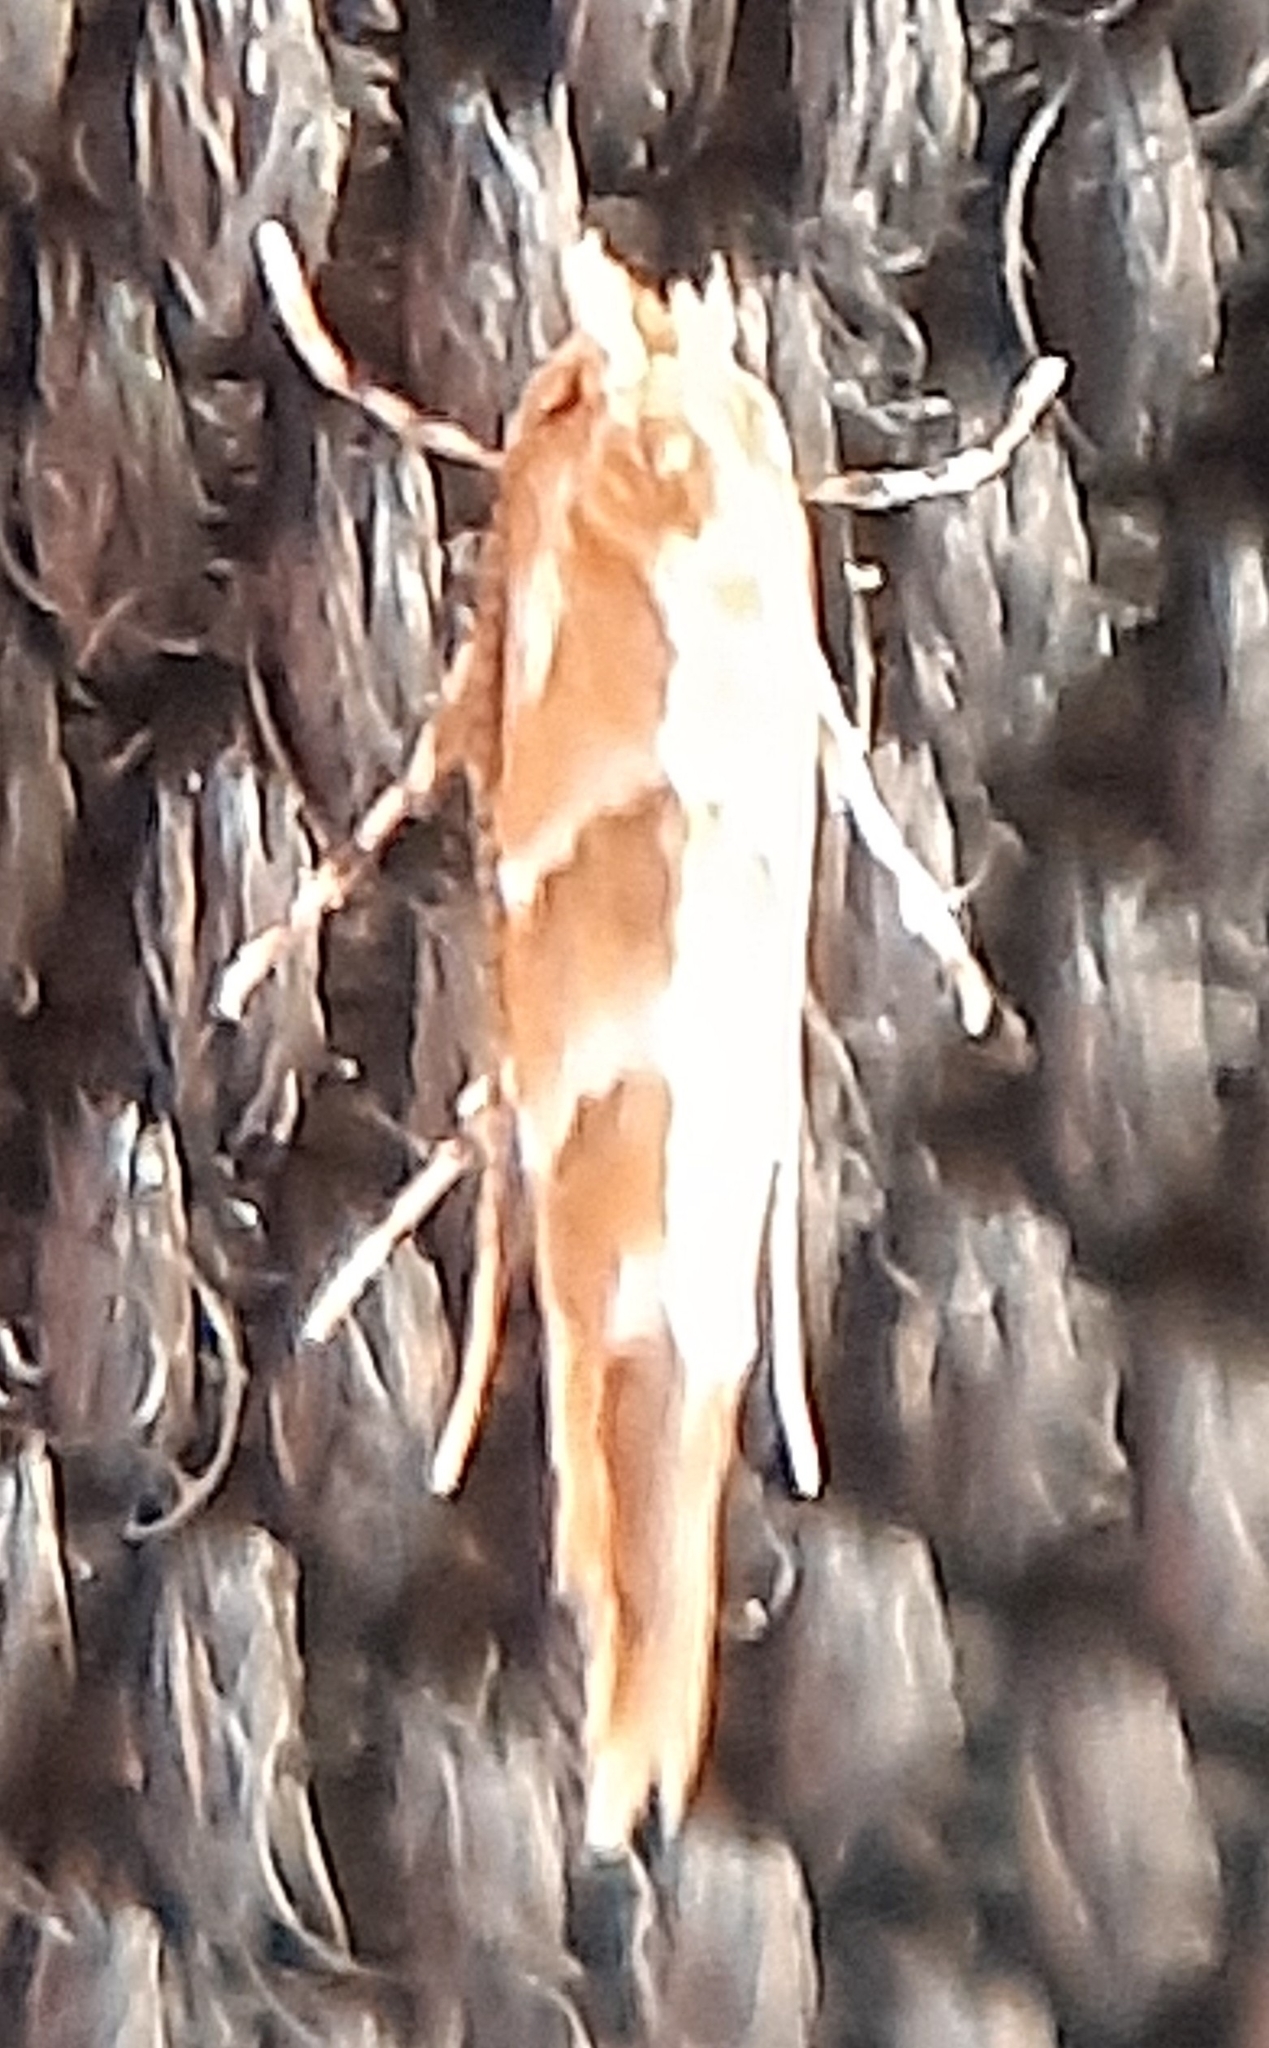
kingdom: Animalia
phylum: Arthropoda
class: Insecta
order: Lepidoptera
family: Gracillariidae
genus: Cameraria
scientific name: Cameraria ohridella
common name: Horse-chestnut leaf-miner
